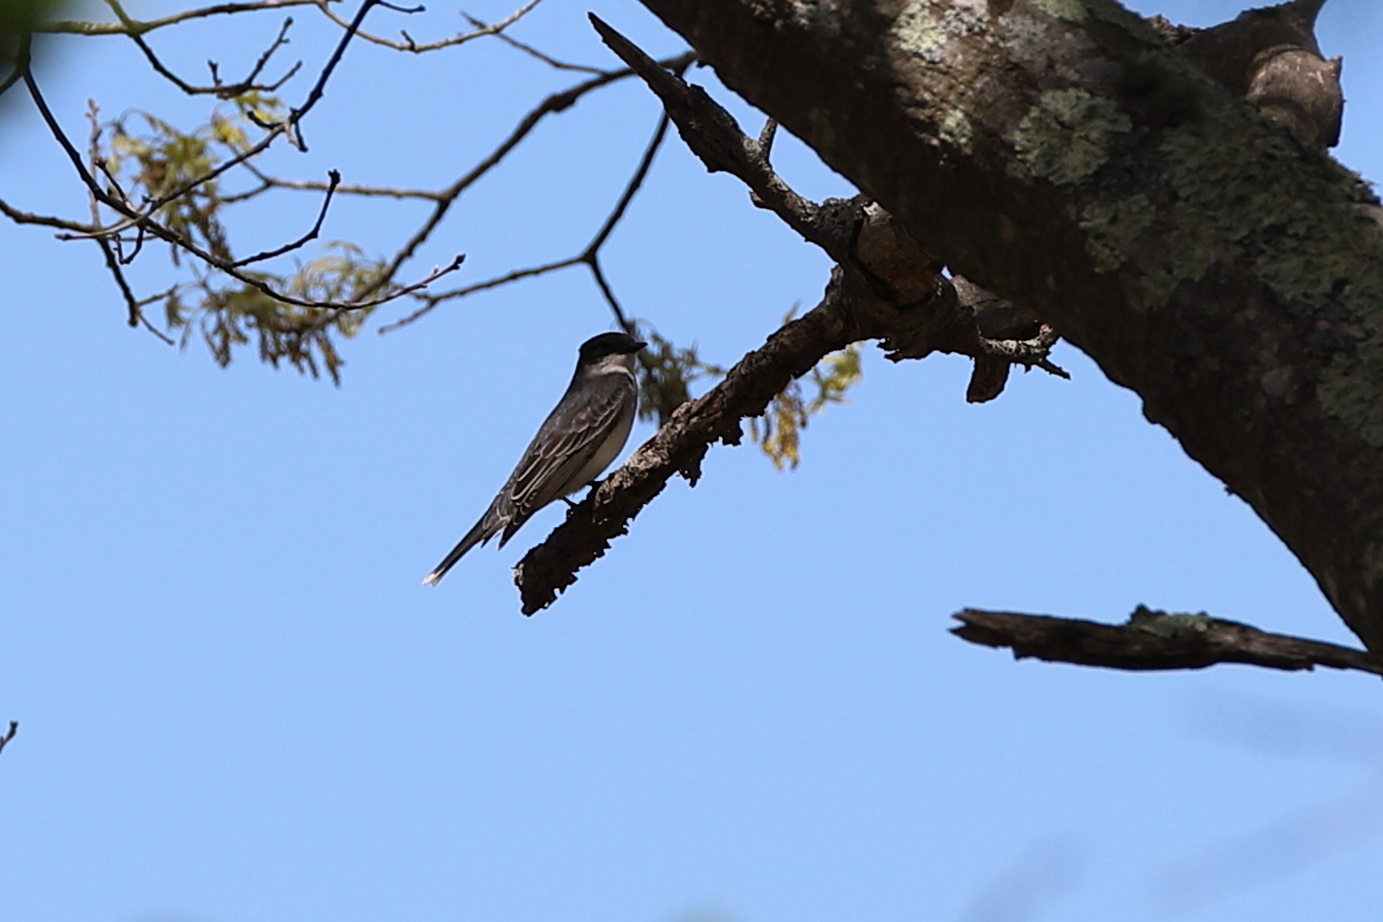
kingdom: Animalia
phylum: Chordata
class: Aves
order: Passeriformes
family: Tyrannidae
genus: Tyrannus
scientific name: Tyrannus tyrannus
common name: Eastern kingbird
